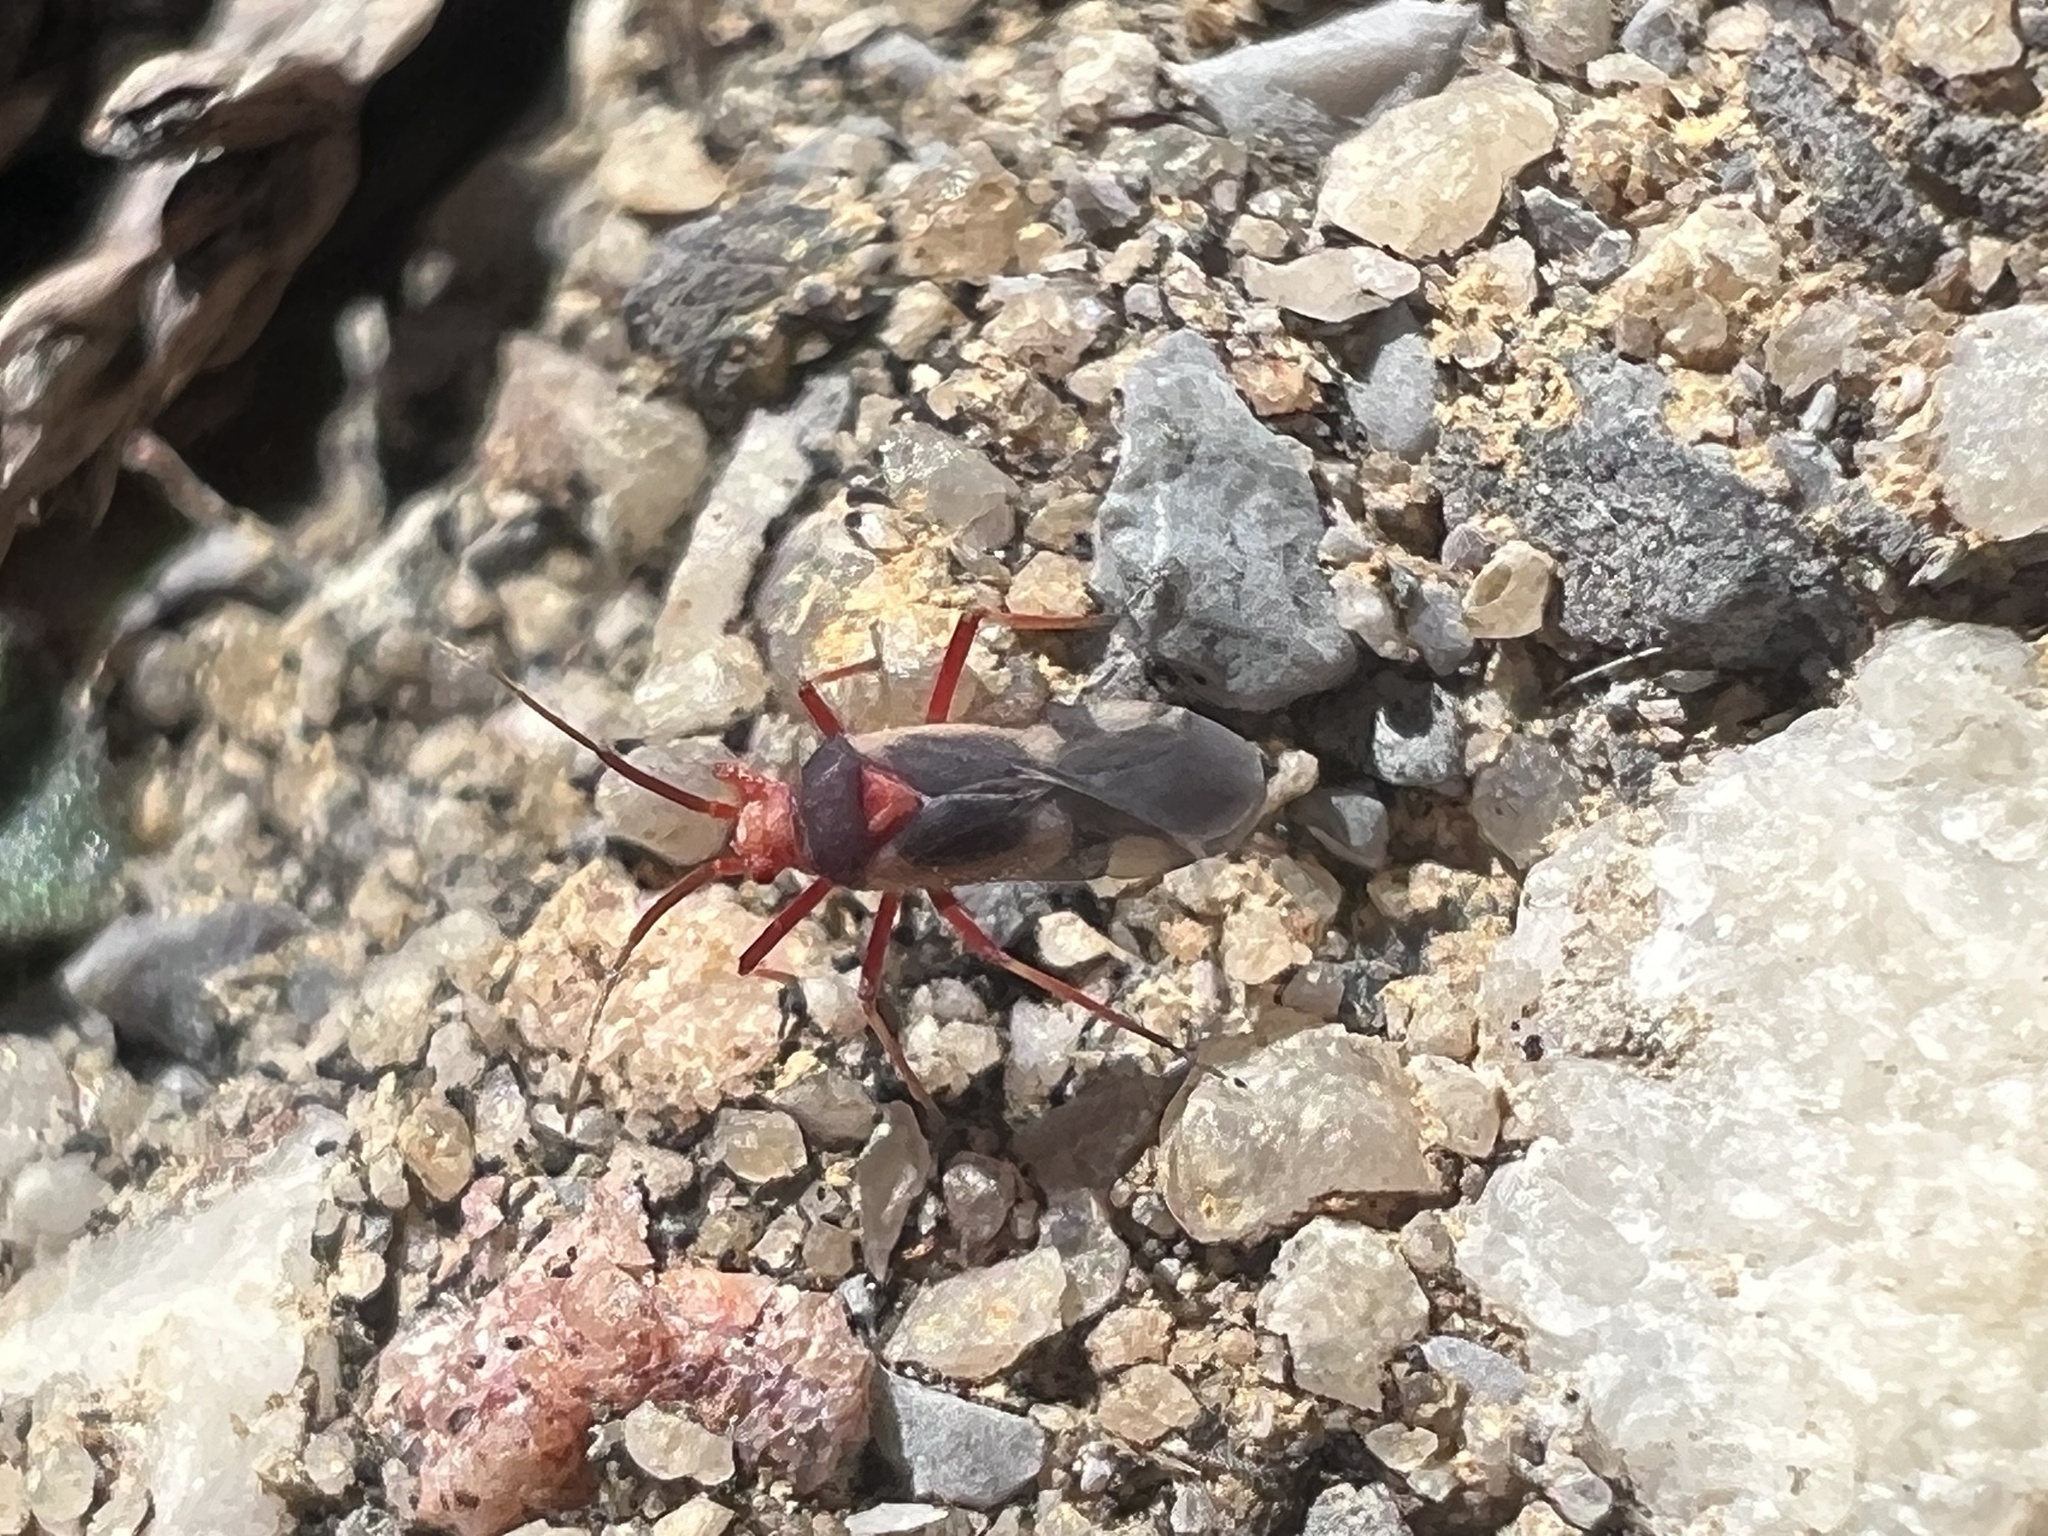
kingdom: Animalia
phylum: Arthropoda
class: Insecta
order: Hemiptera
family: Miridae
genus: Semium
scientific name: Semium hirtum
